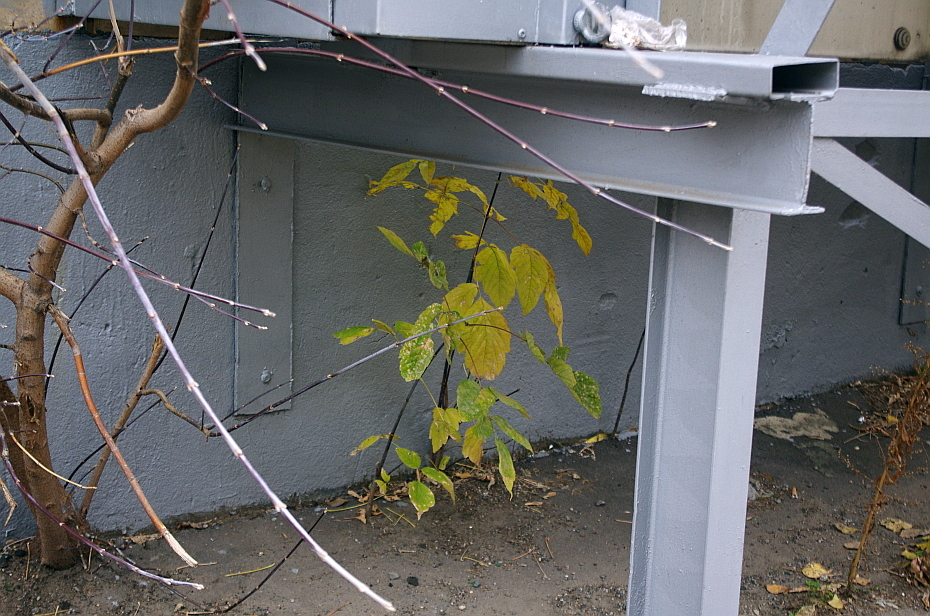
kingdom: Plantae
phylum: Tracheophyta
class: Magnoliopsida
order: Sapindales
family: Sapindaceae
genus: Acer
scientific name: Acer negundo
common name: Ashleaf maple
